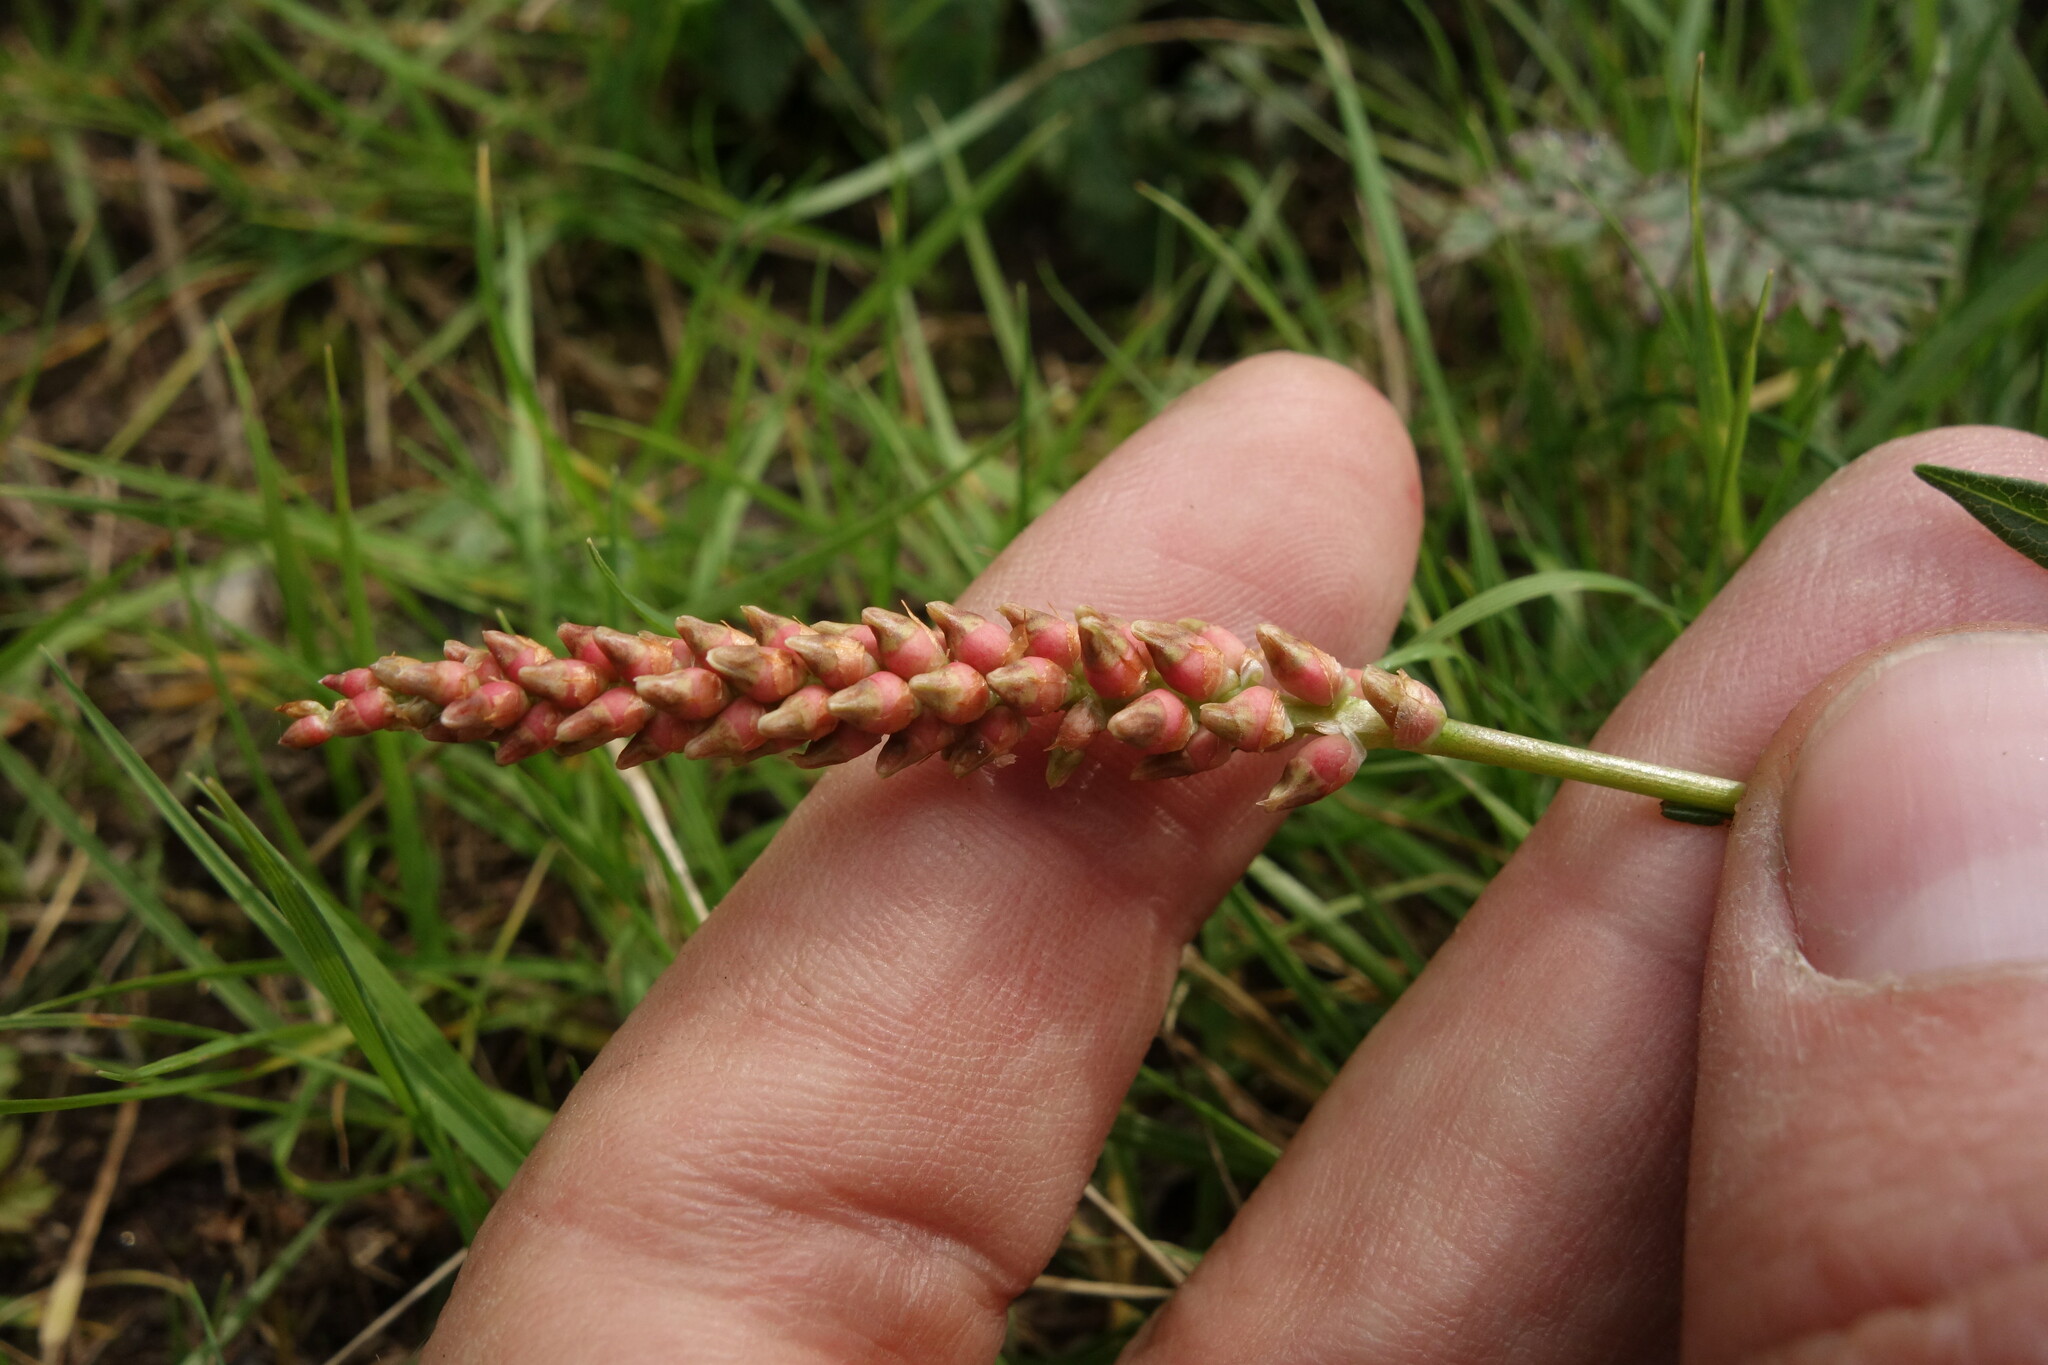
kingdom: Plantae
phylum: Tracheophyta
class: Magnoliopsida
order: Caryophyllales
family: Polygonaceae
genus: Bistorta
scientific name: Bistorta vivipara
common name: Alpine bistort
